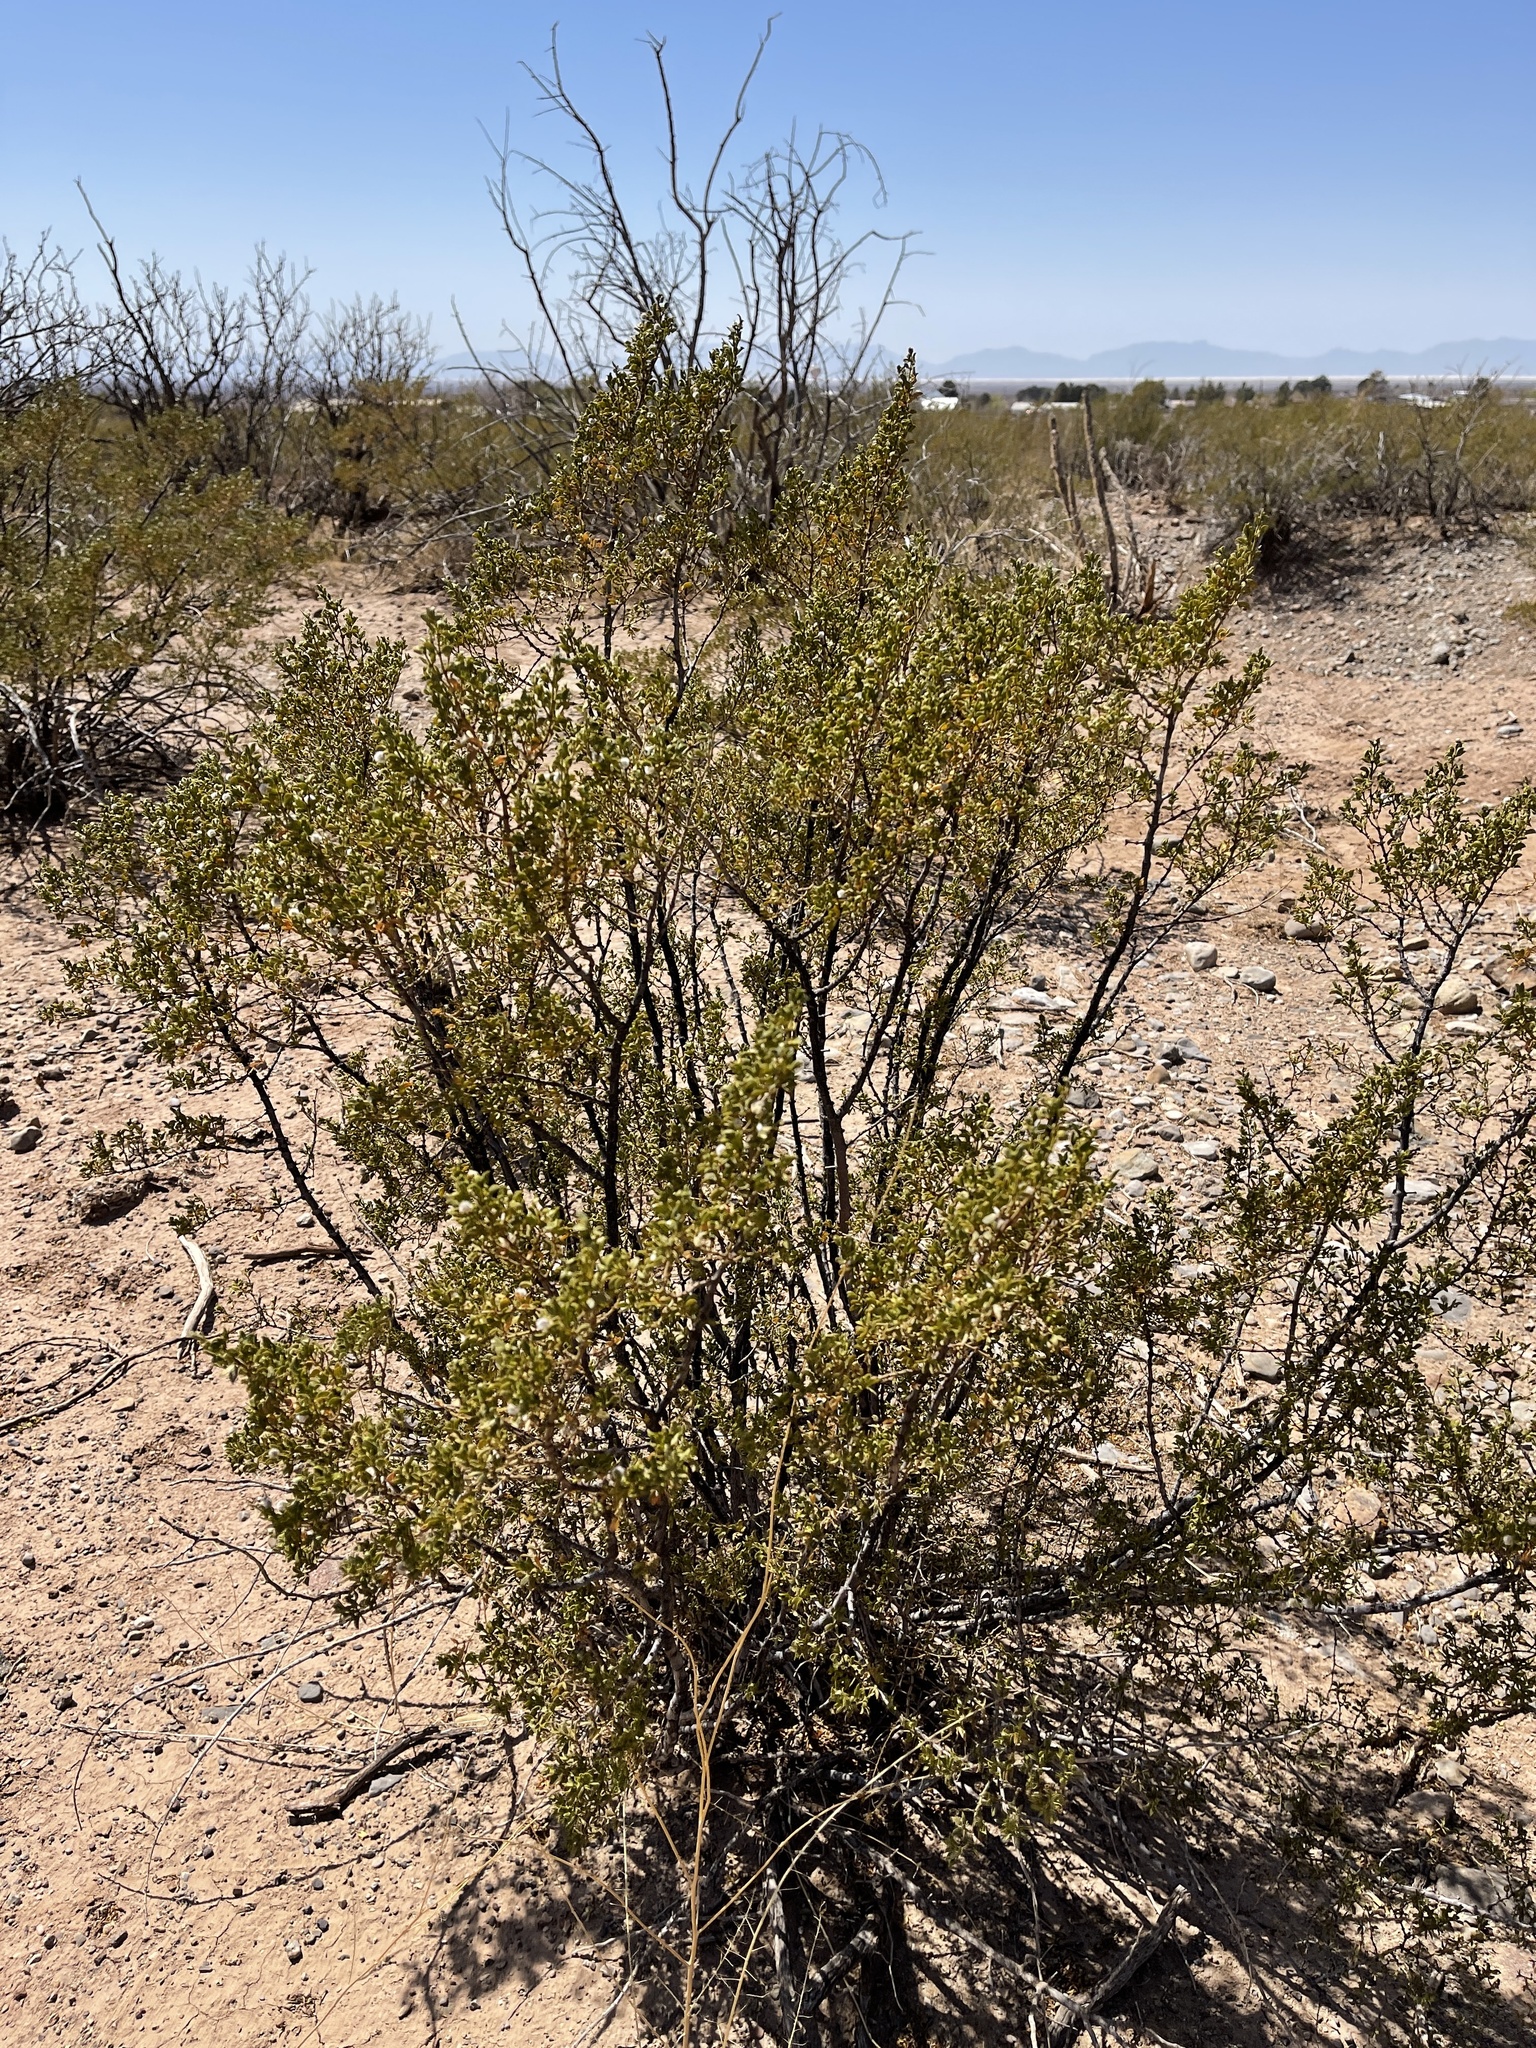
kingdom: Plantae
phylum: Tracheophyta
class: Magnoliopsida
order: Zygophyllales
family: Zygophyllaceae
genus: Larrea
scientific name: Larrea tridentata
